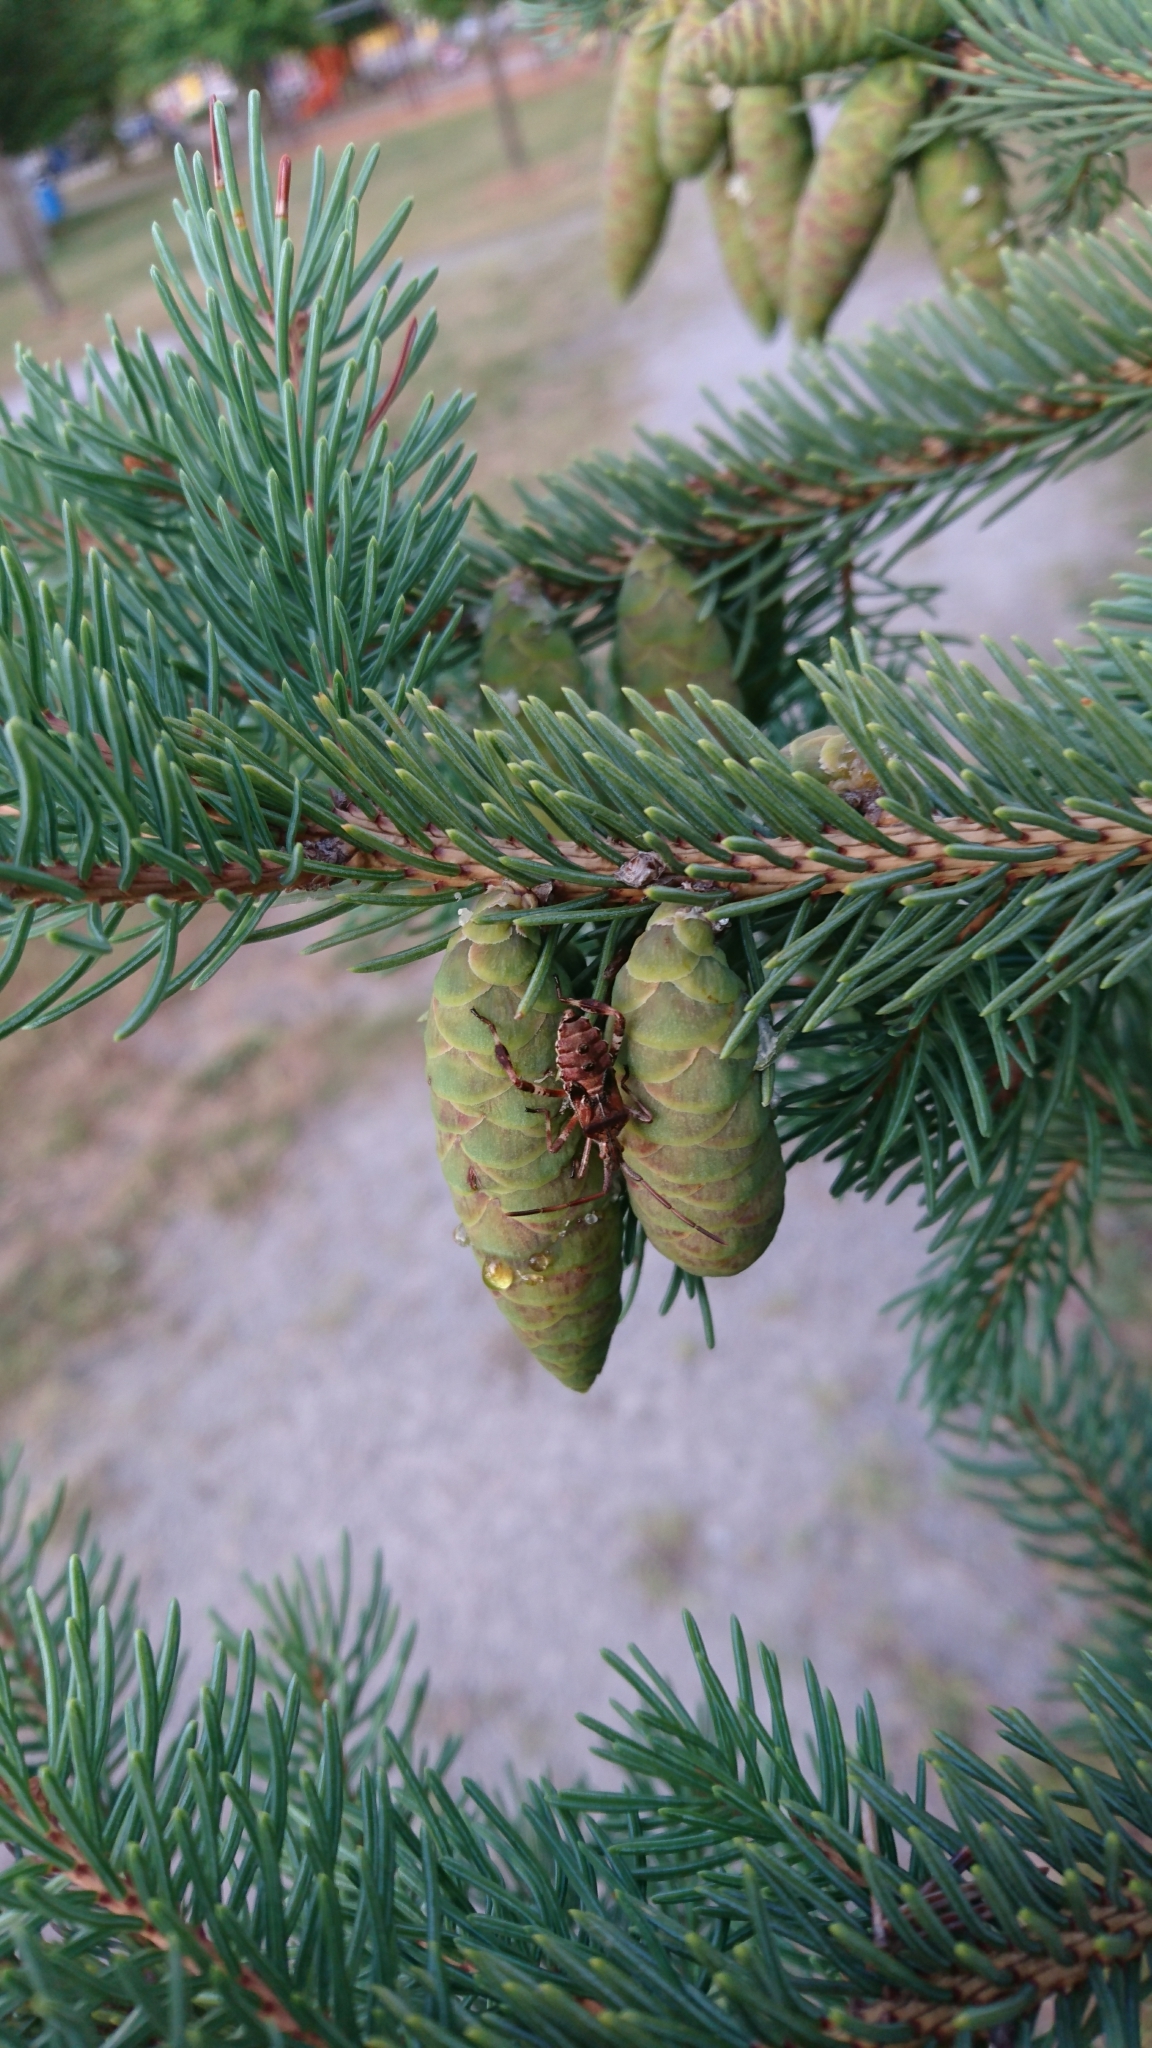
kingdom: Animalia
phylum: Arthropoda
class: Insecta
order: Hemiptera
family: Coreidae
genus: Leptoglossus
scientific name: Leptoglossus occidentalis
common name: Western conifer-seed bug
